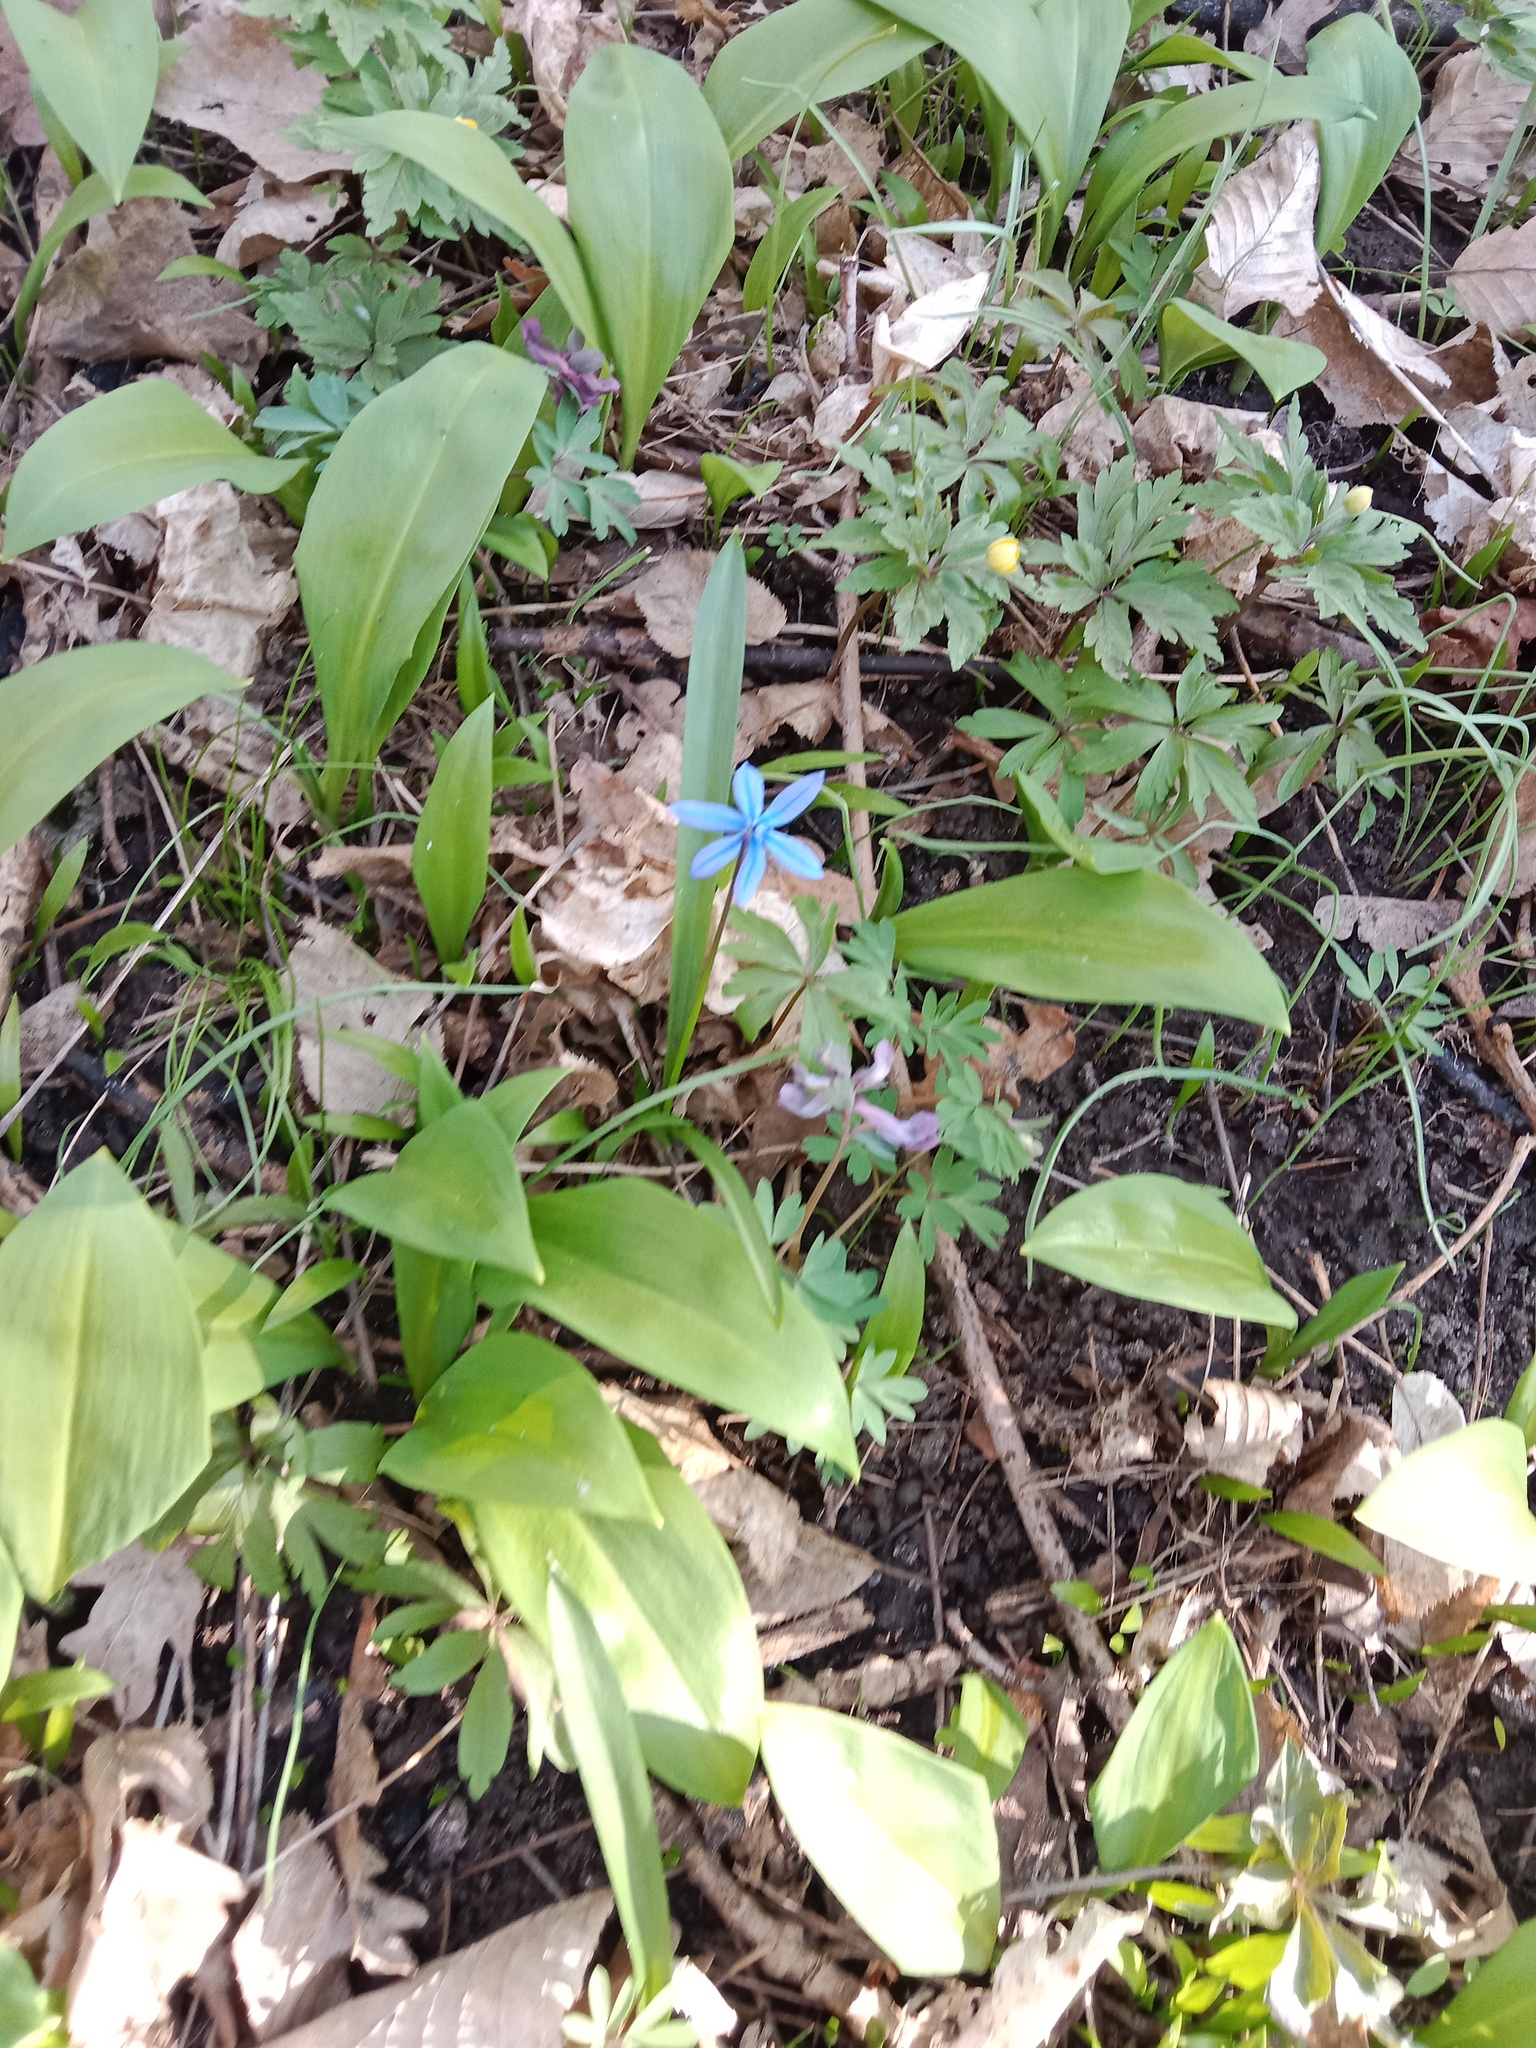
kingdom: Plantae
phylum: Tracheophyta
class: Liliopsida
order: Asparagales
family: Asparagaceae
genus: Scilla
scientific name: Scilla siberica
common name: Siberian squill
